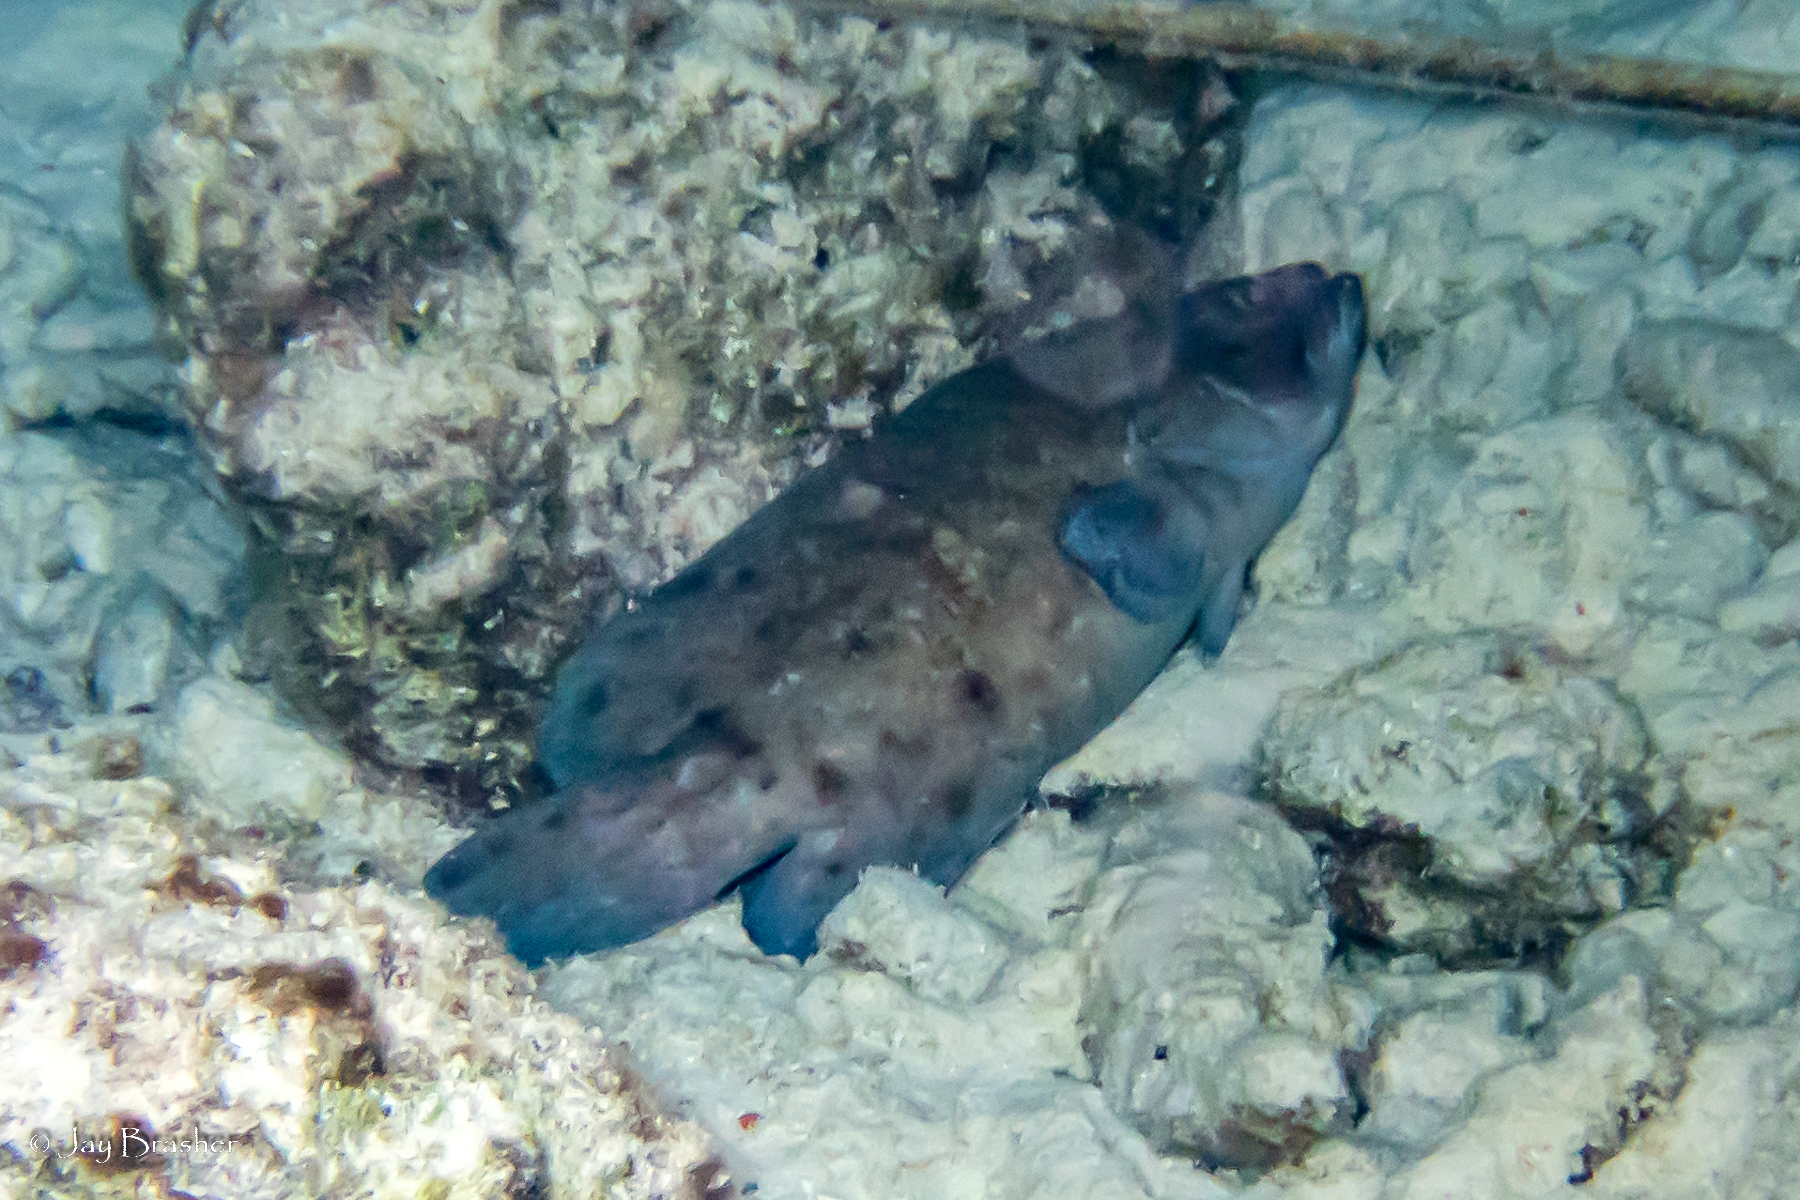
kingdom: Animalia
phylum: Chordata
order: Perciformes
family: Serranidae
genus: Rypticus
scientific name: Rypticus saponaceus
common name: Soapfish
